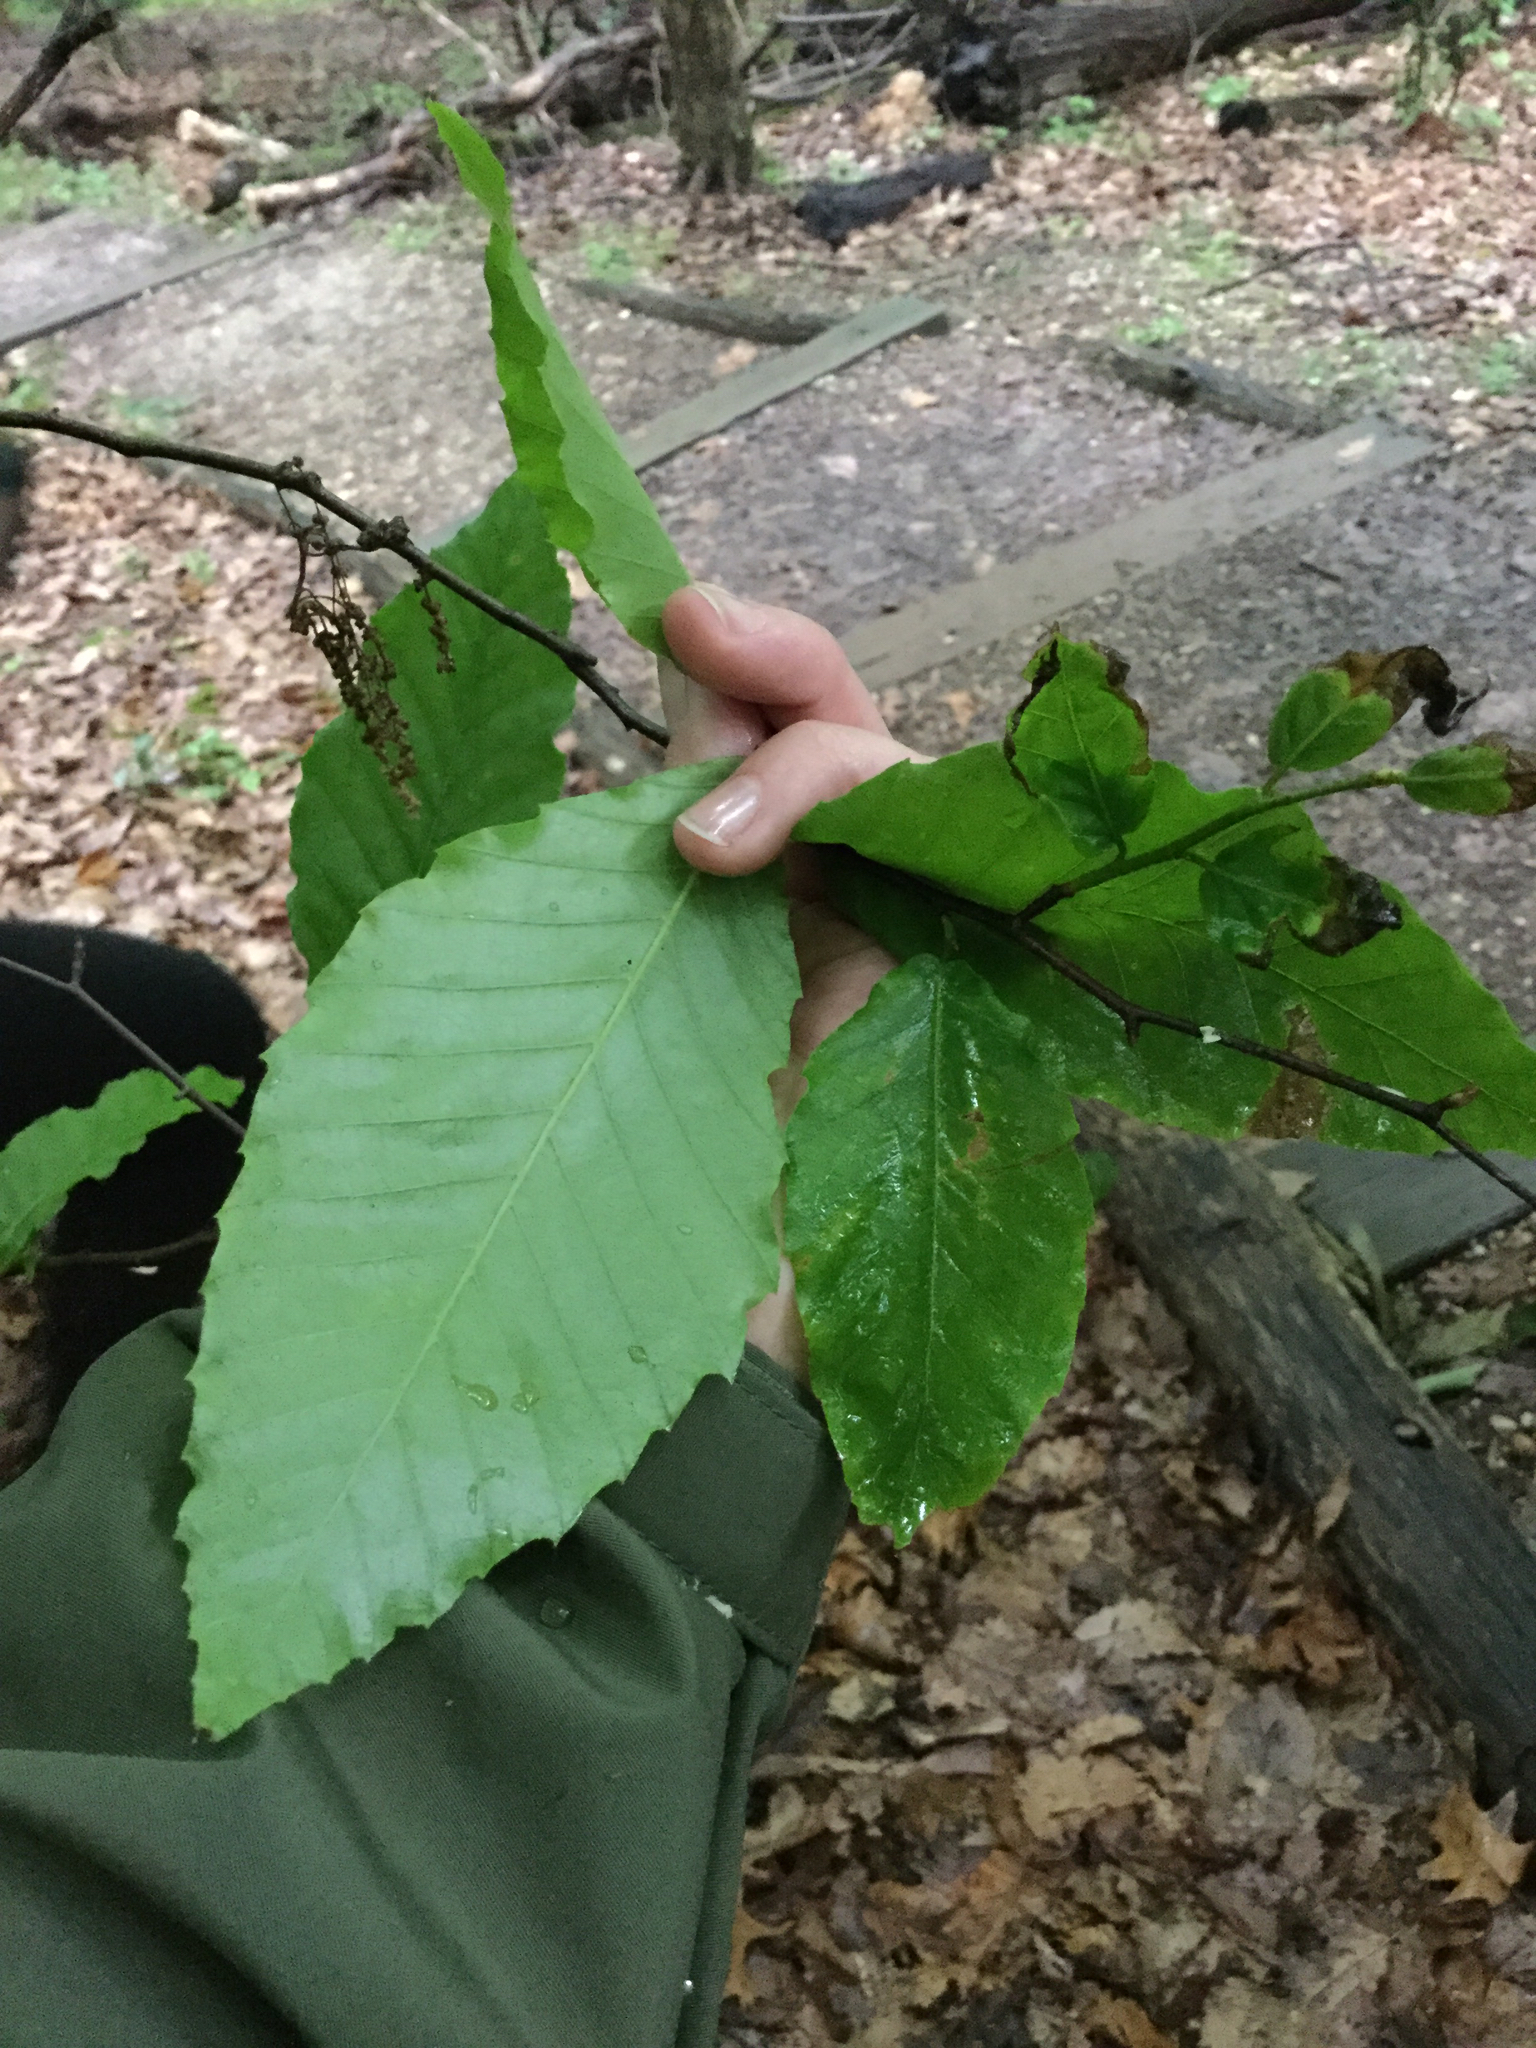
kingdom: Plantae
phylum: Tracheophyta
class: Magnoliopsida
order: Fagales
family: Fagaceae
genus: Fagus
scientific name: Fagus grandifolia
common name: American beech
